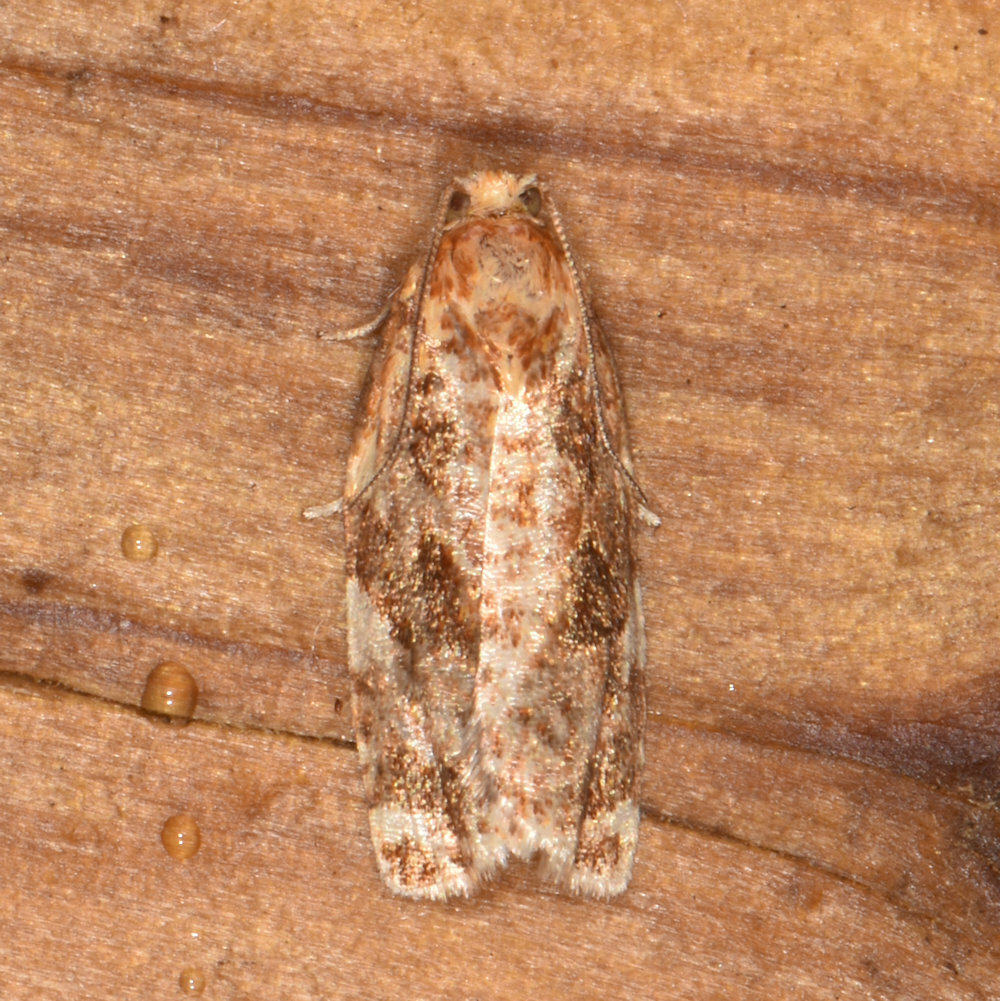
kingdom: Animalia
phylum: Arthropoda
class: Insecta
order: Lepidoptera
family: Tortricidae
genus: Archips
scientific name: Archips argyrospila
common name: Fruit-tree leafroller moth
